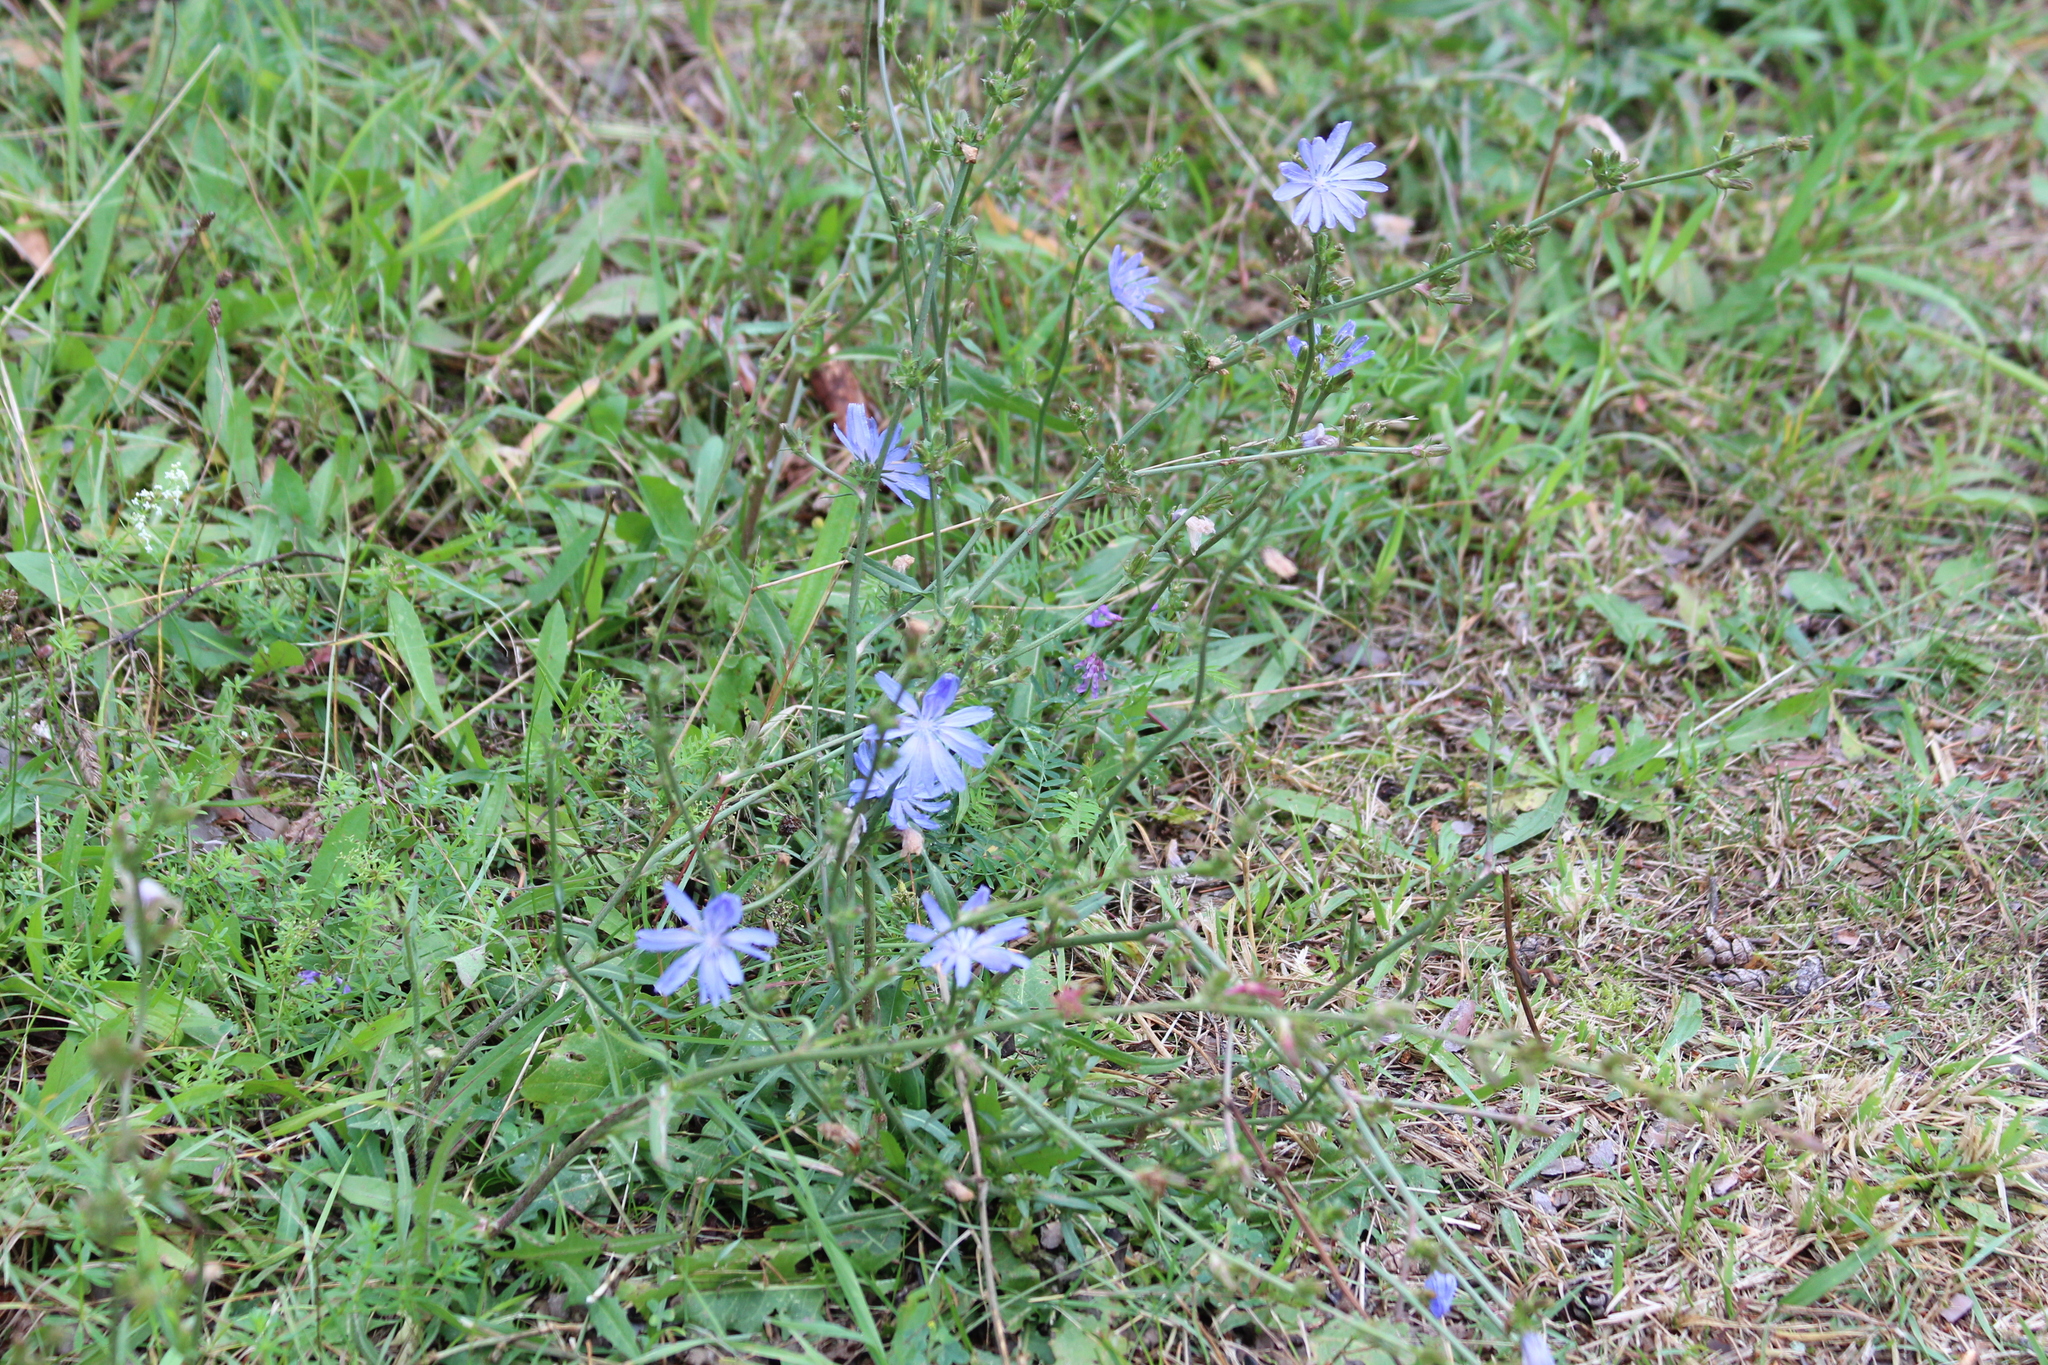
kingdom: Plantae
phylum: Tracheophyta
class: Magnoliopsida
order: Asterales
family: Asteraceae
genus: Cichorium
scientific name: Cichorium intybus
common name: Chicory
